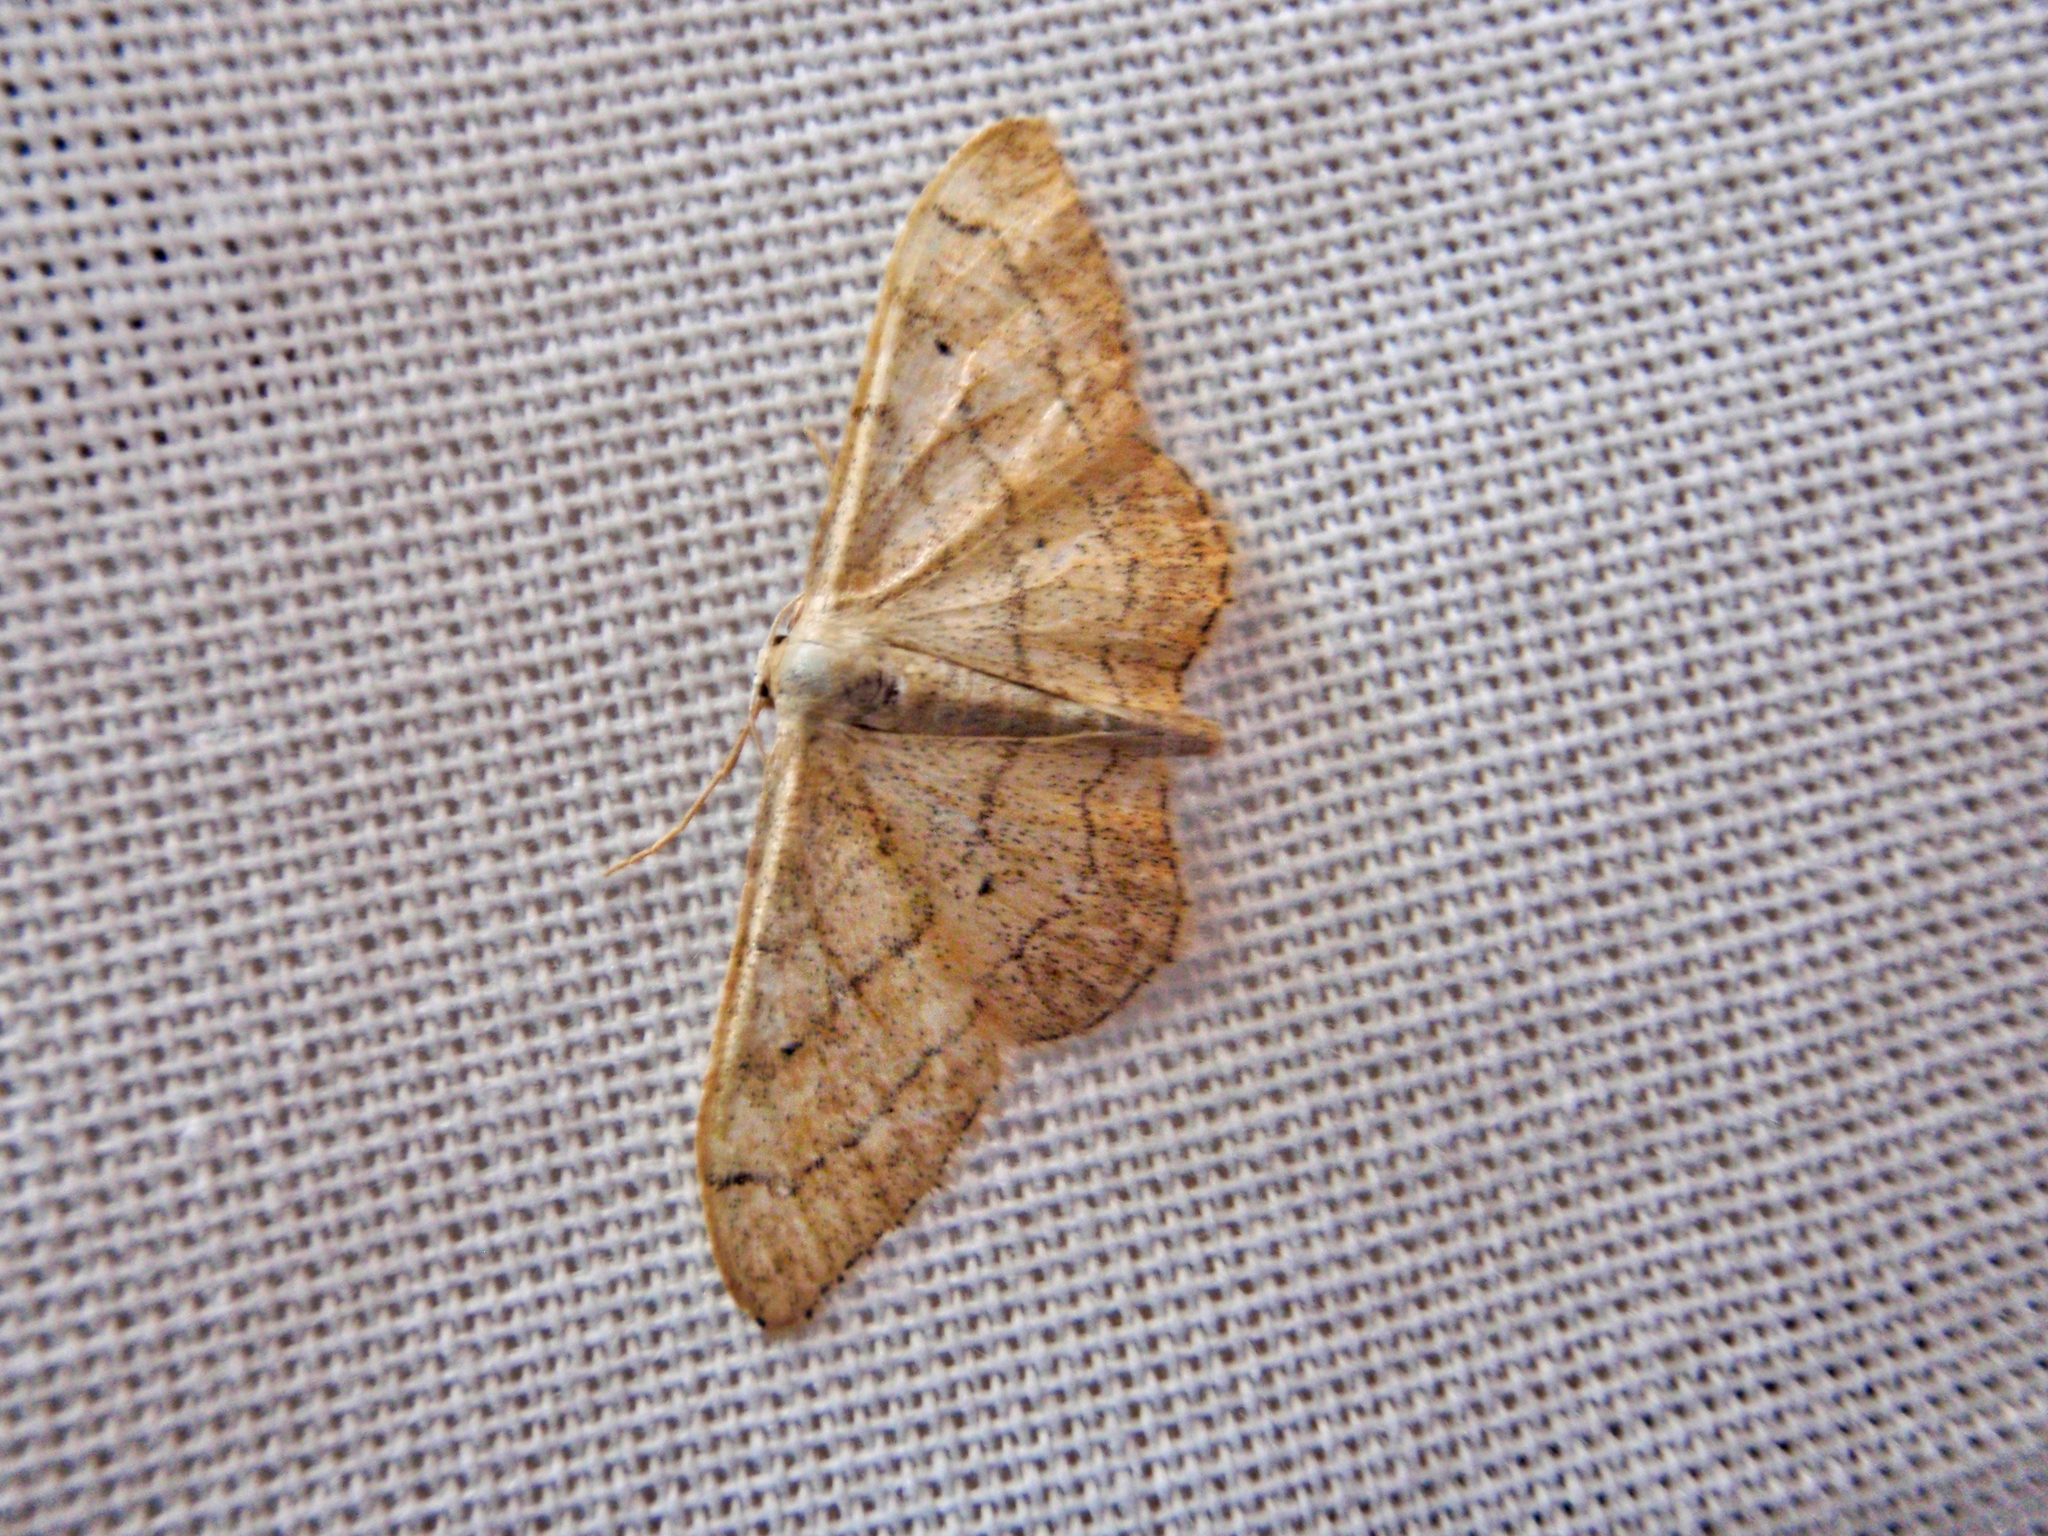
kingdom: Animalia
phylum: Arthropoda
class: Insecta
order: Lepidoptera
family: Geometridae
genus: Idaea
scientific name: Idaea aversata
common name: Riband wave
